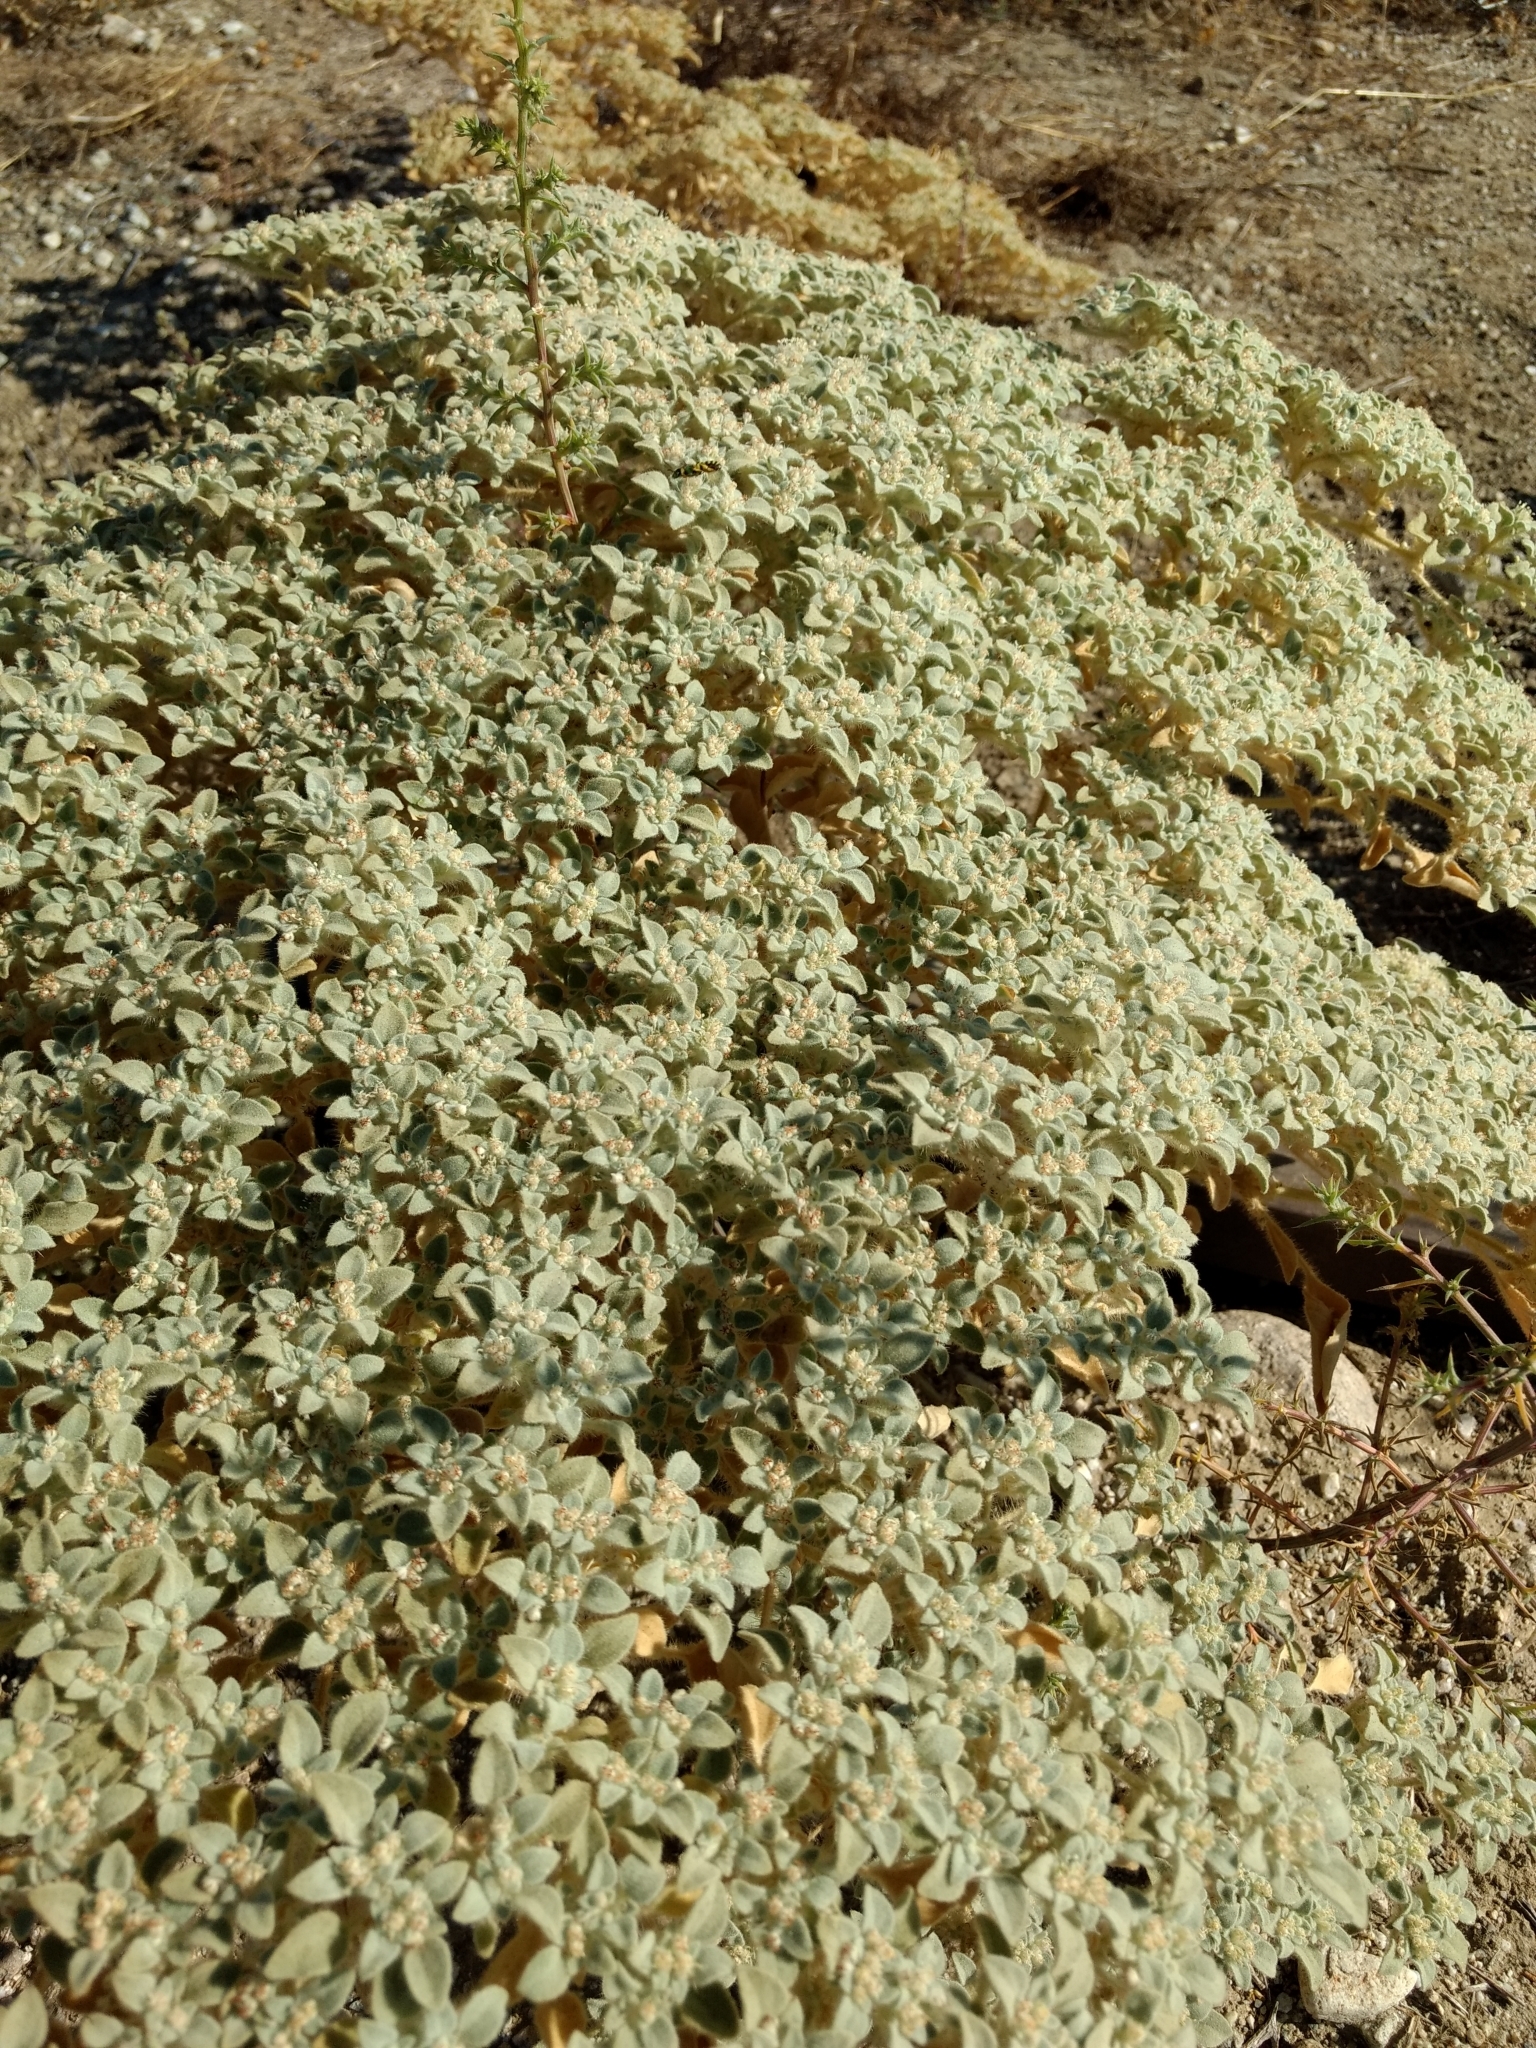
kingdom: Plantae
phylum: Tracheophyta
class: Magnoliopsida
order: Malpighiales
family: Euphorbiaceae
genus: Croton
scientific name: Croton setiger
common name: Dove weed
